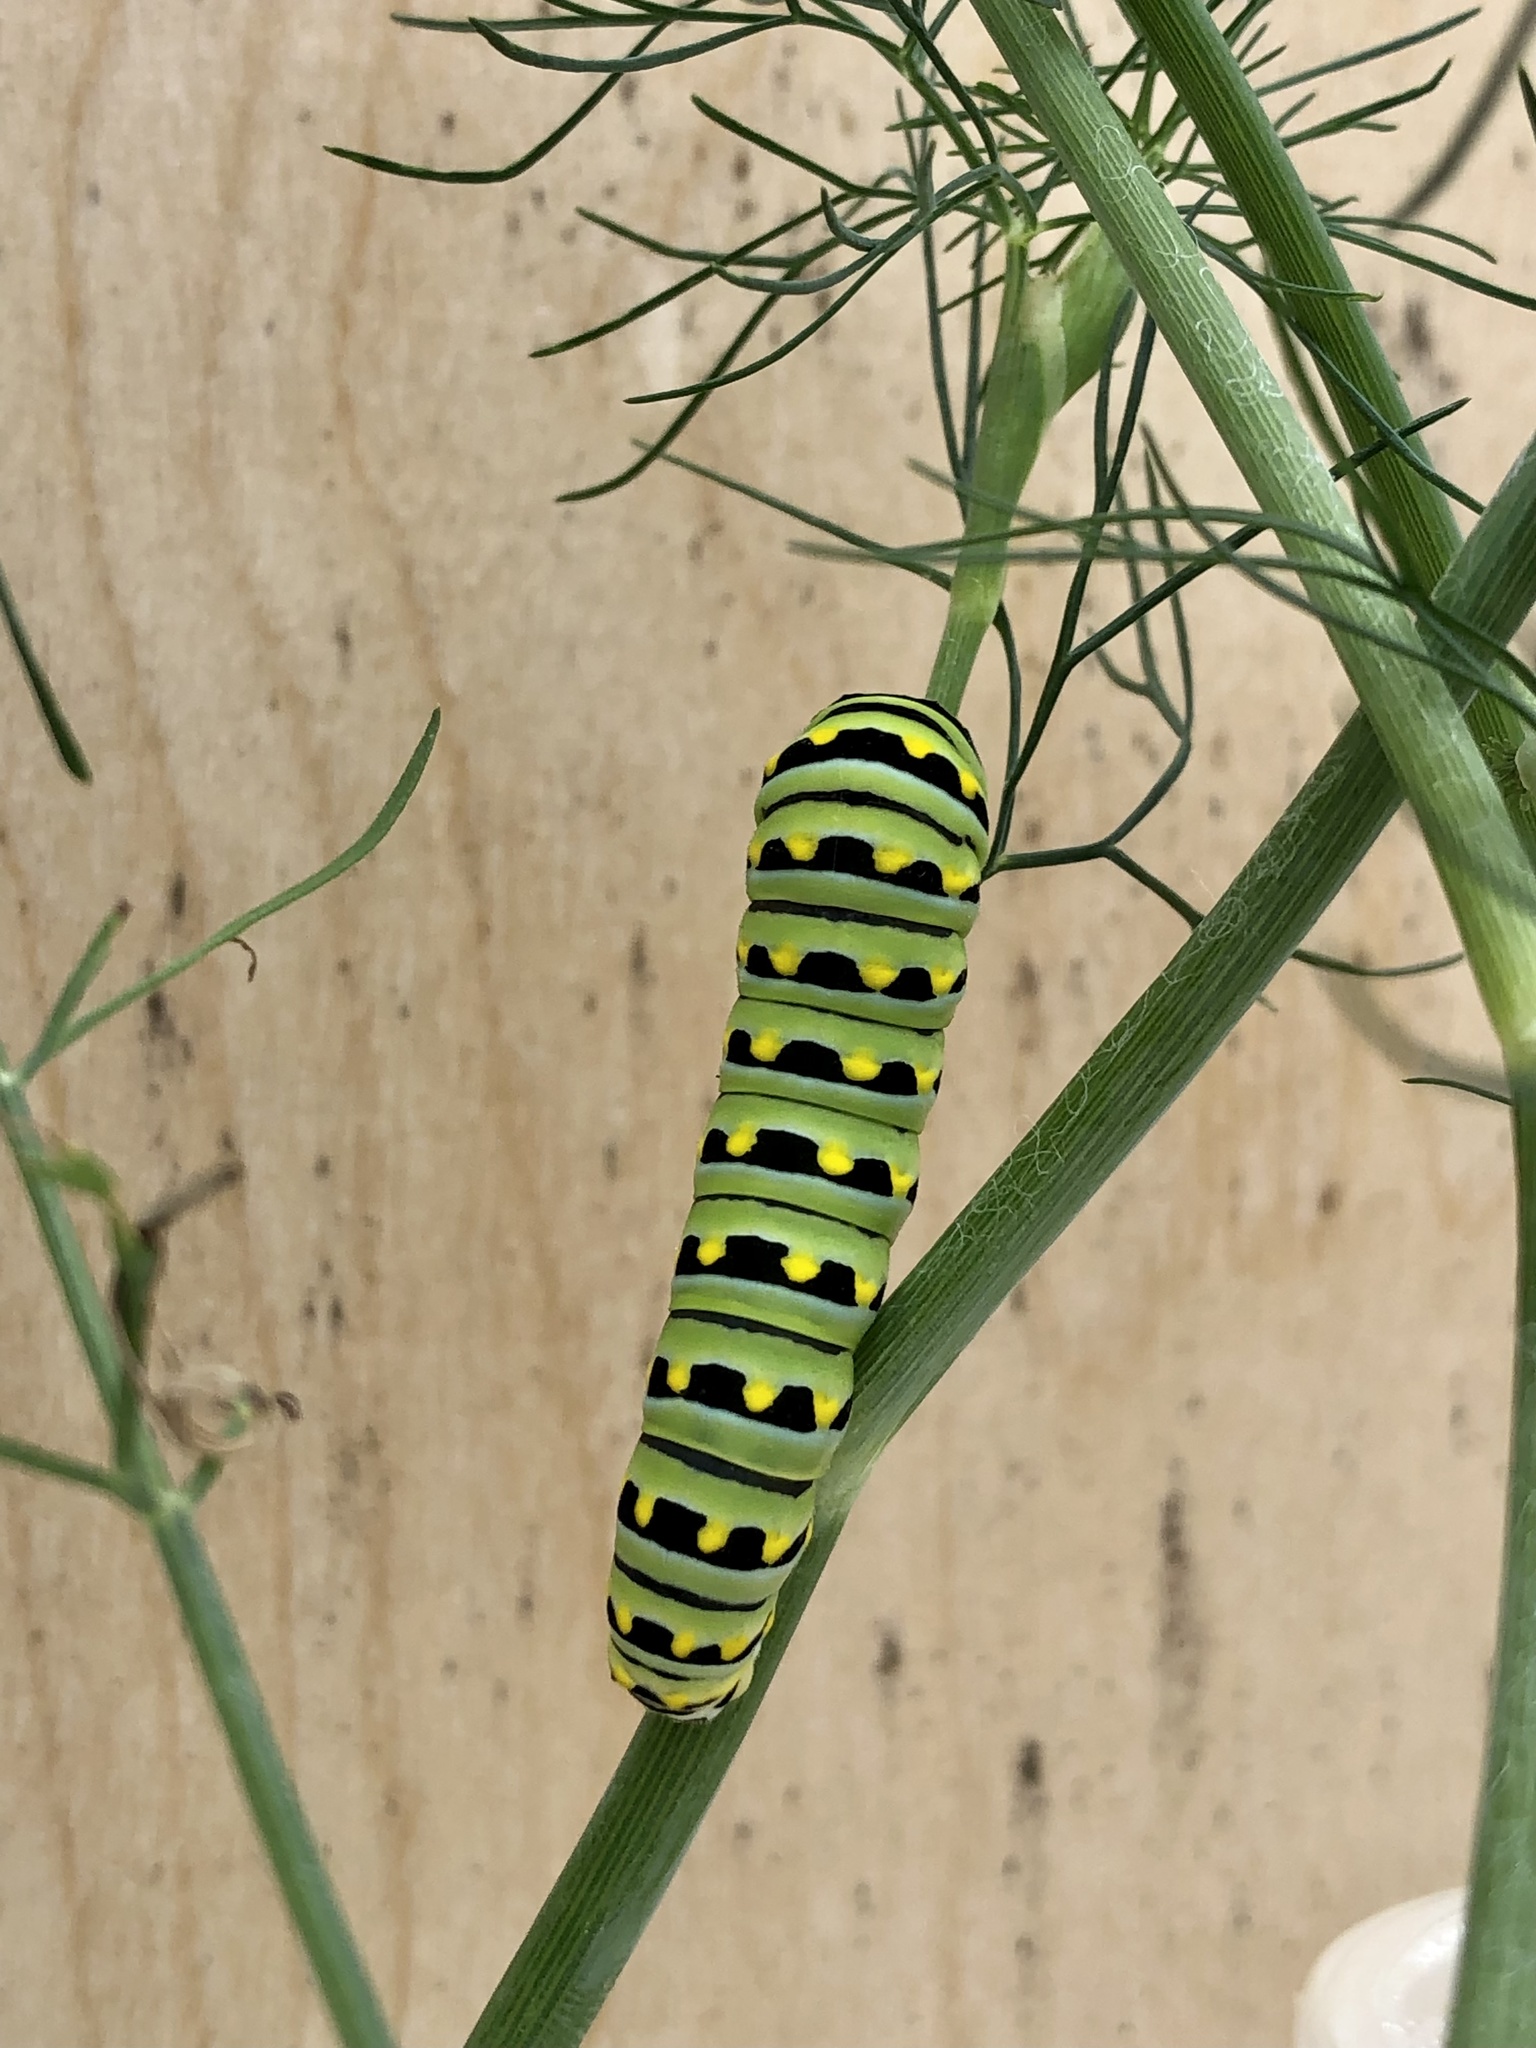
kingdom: Animalia
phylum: Arthropoda
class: Insecta
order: Lepidoptera
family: Papilionidae
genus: Papilio
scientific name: Papilio polyxenes
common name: Black swallowtail
